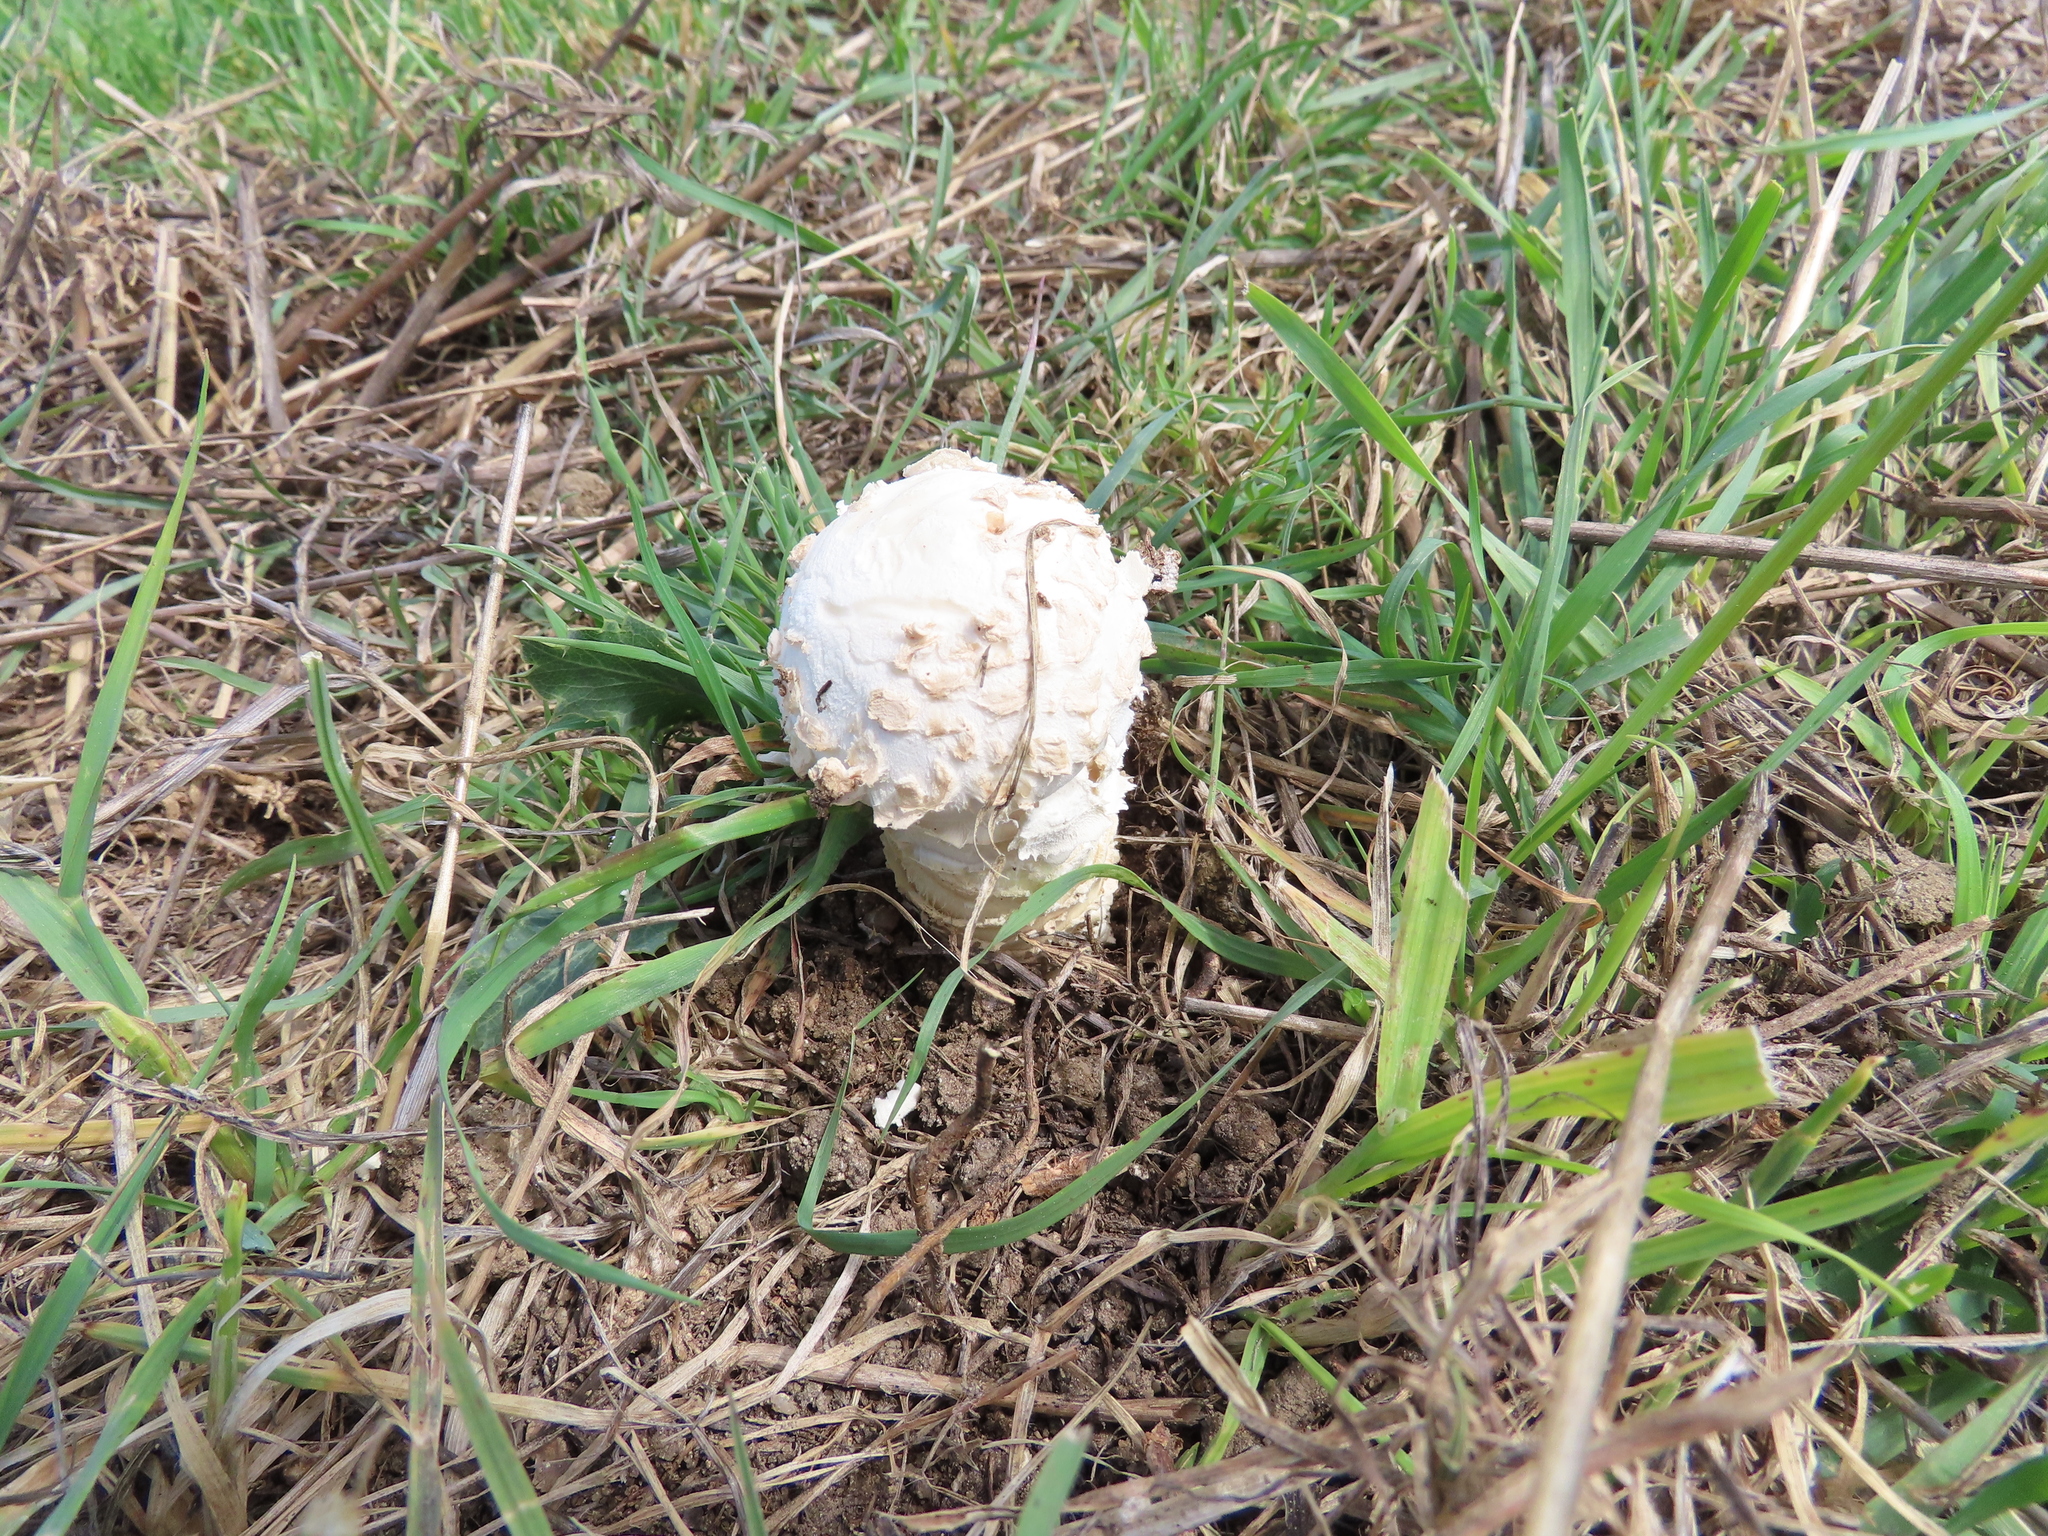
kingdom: Fungi
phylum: Basidiomycota
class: Agaricomycetes
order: Agaricales
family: Amanitaceae
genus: Amanita
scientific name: Amanita vittadinii
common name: Barefoot amanita
